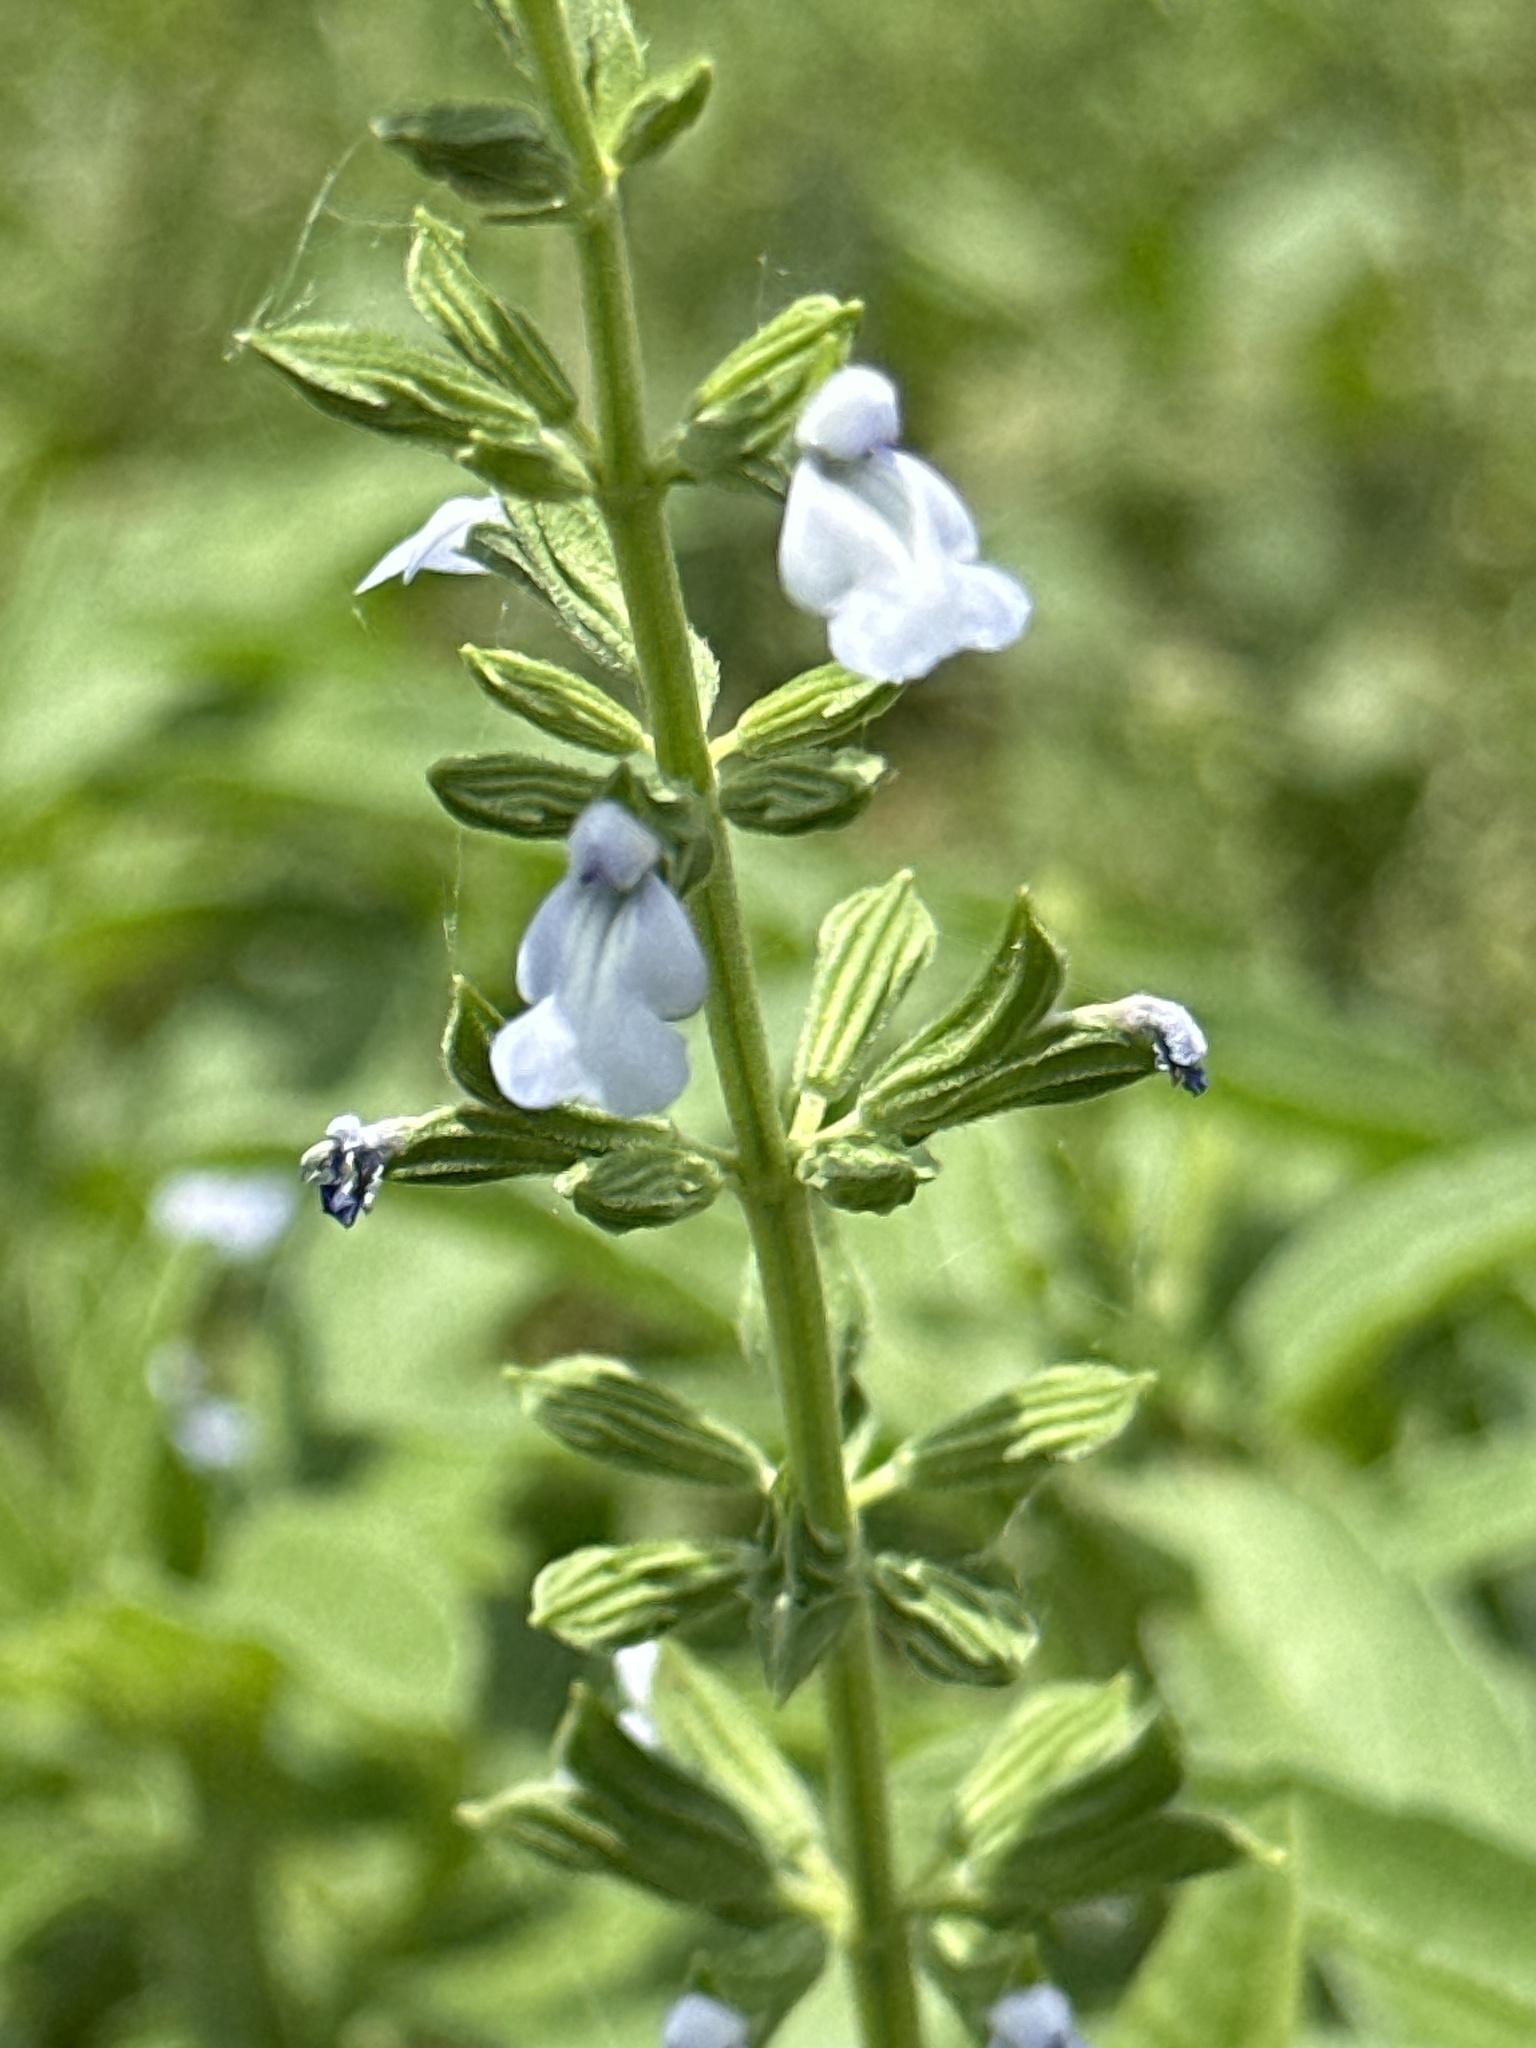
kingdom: Plantae
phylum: Tracheophyta
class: Magnoliopsida
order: Lamiales
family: Lamiaceae
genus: Salvia
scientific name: Salvia reflexa
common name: Mintweed
